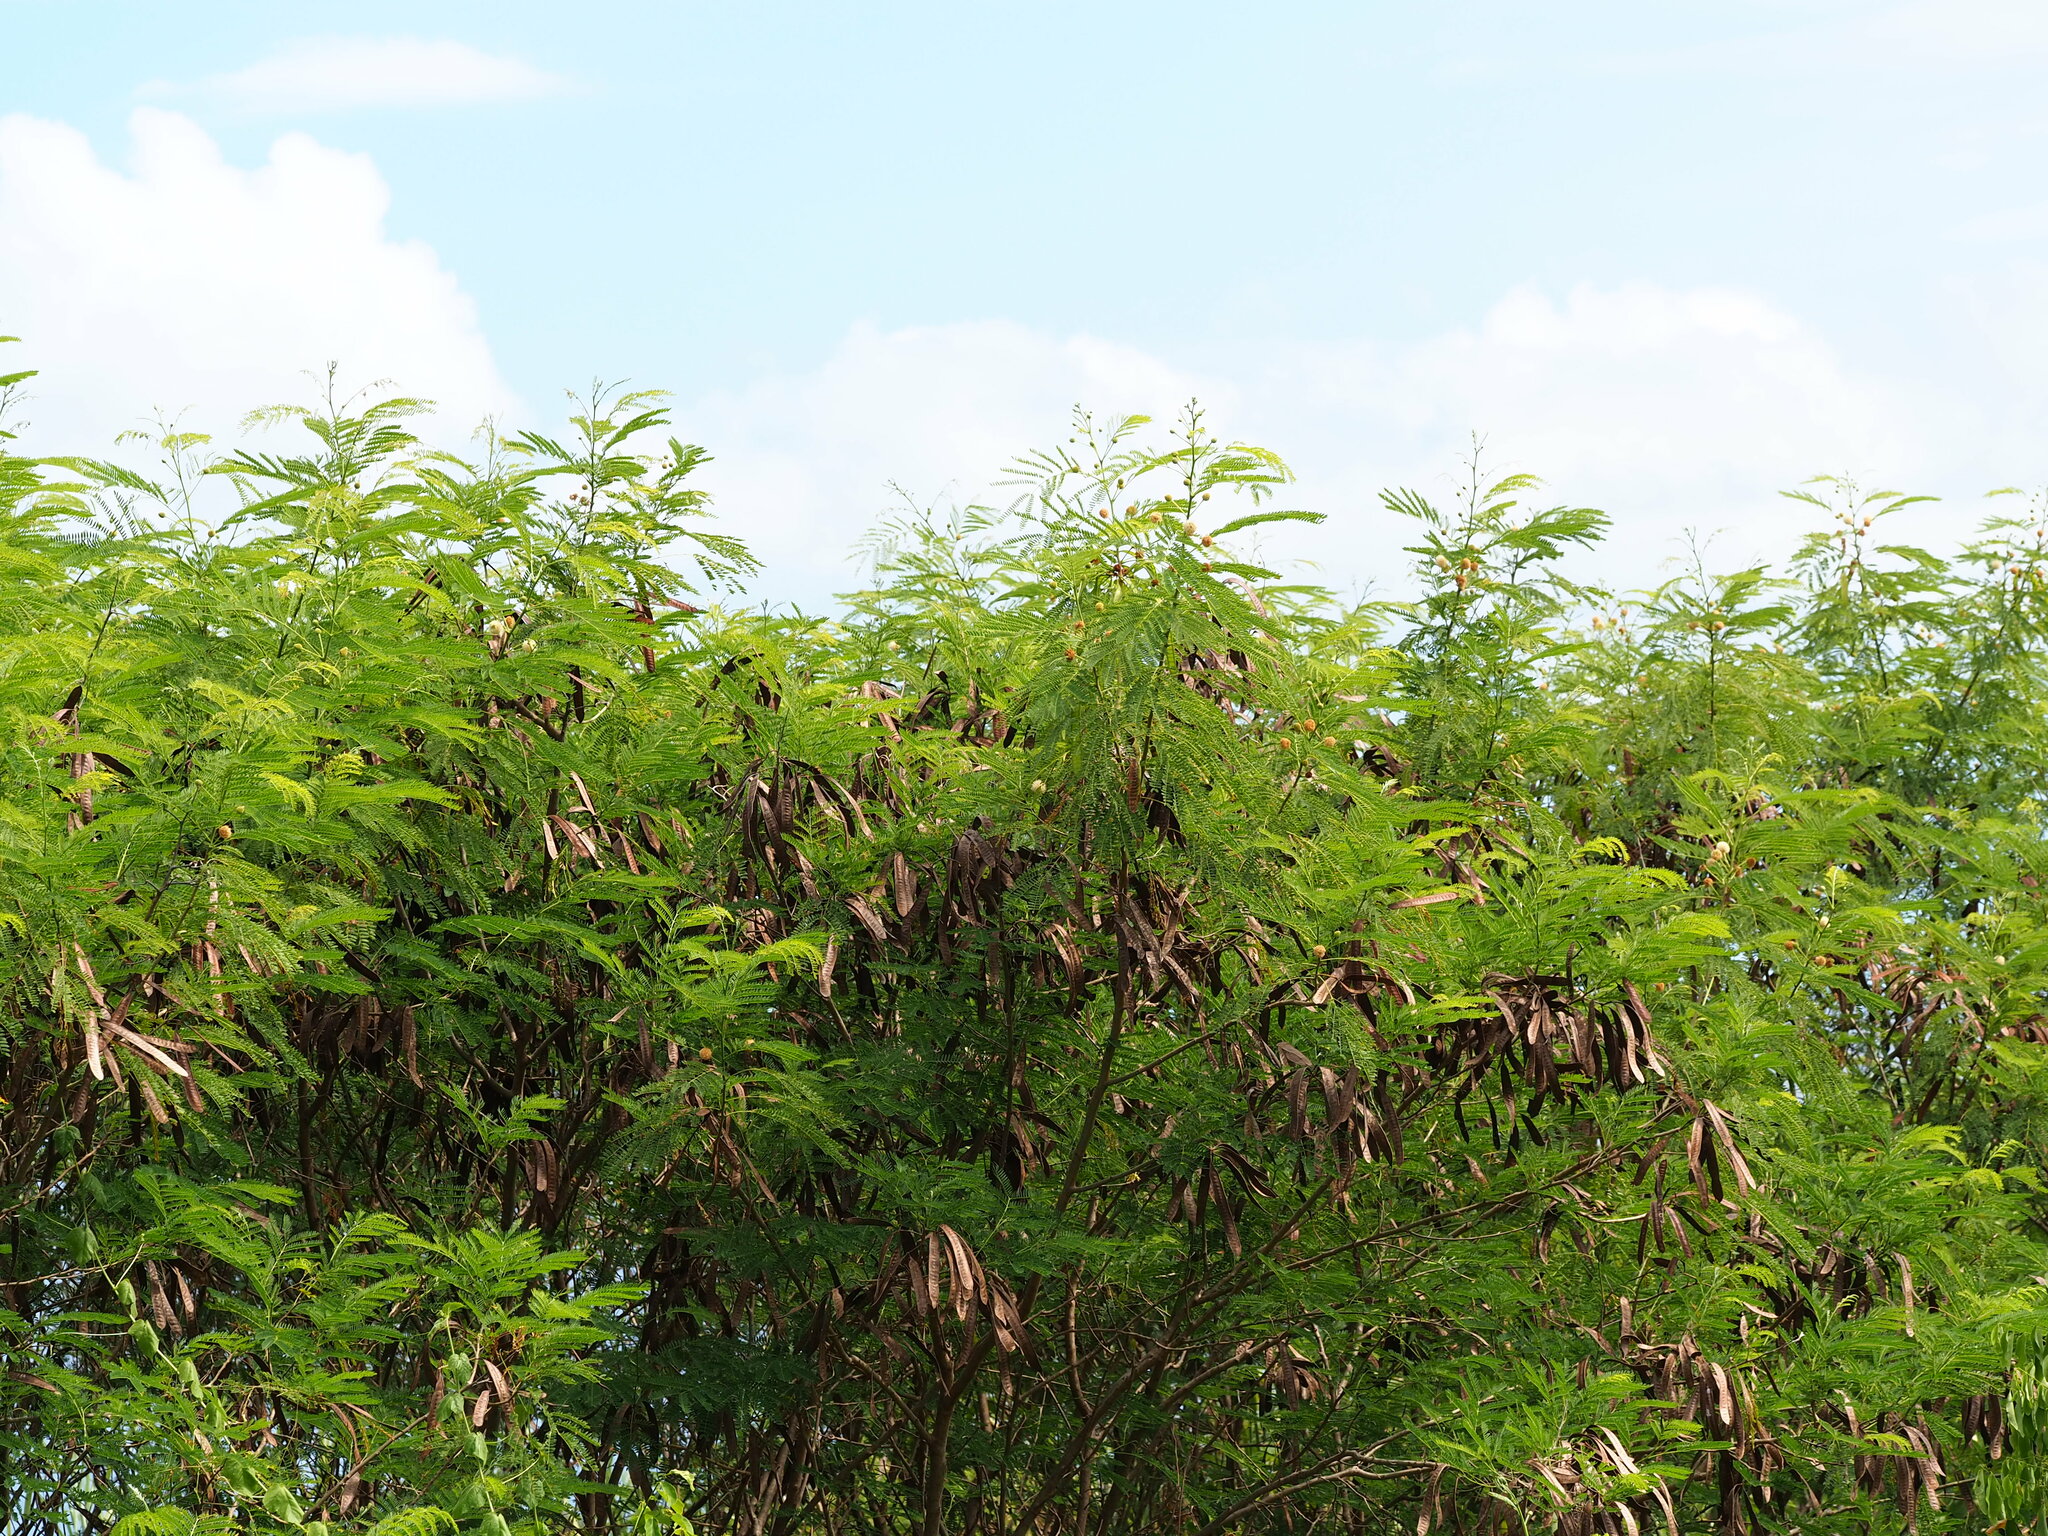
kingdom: Plantae
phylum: Tracheophyta
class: Magnoliopsida
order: Fabales
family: Fabaceae
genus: Leucaena
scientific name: Leucaena leucocephala
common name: White leadtree
